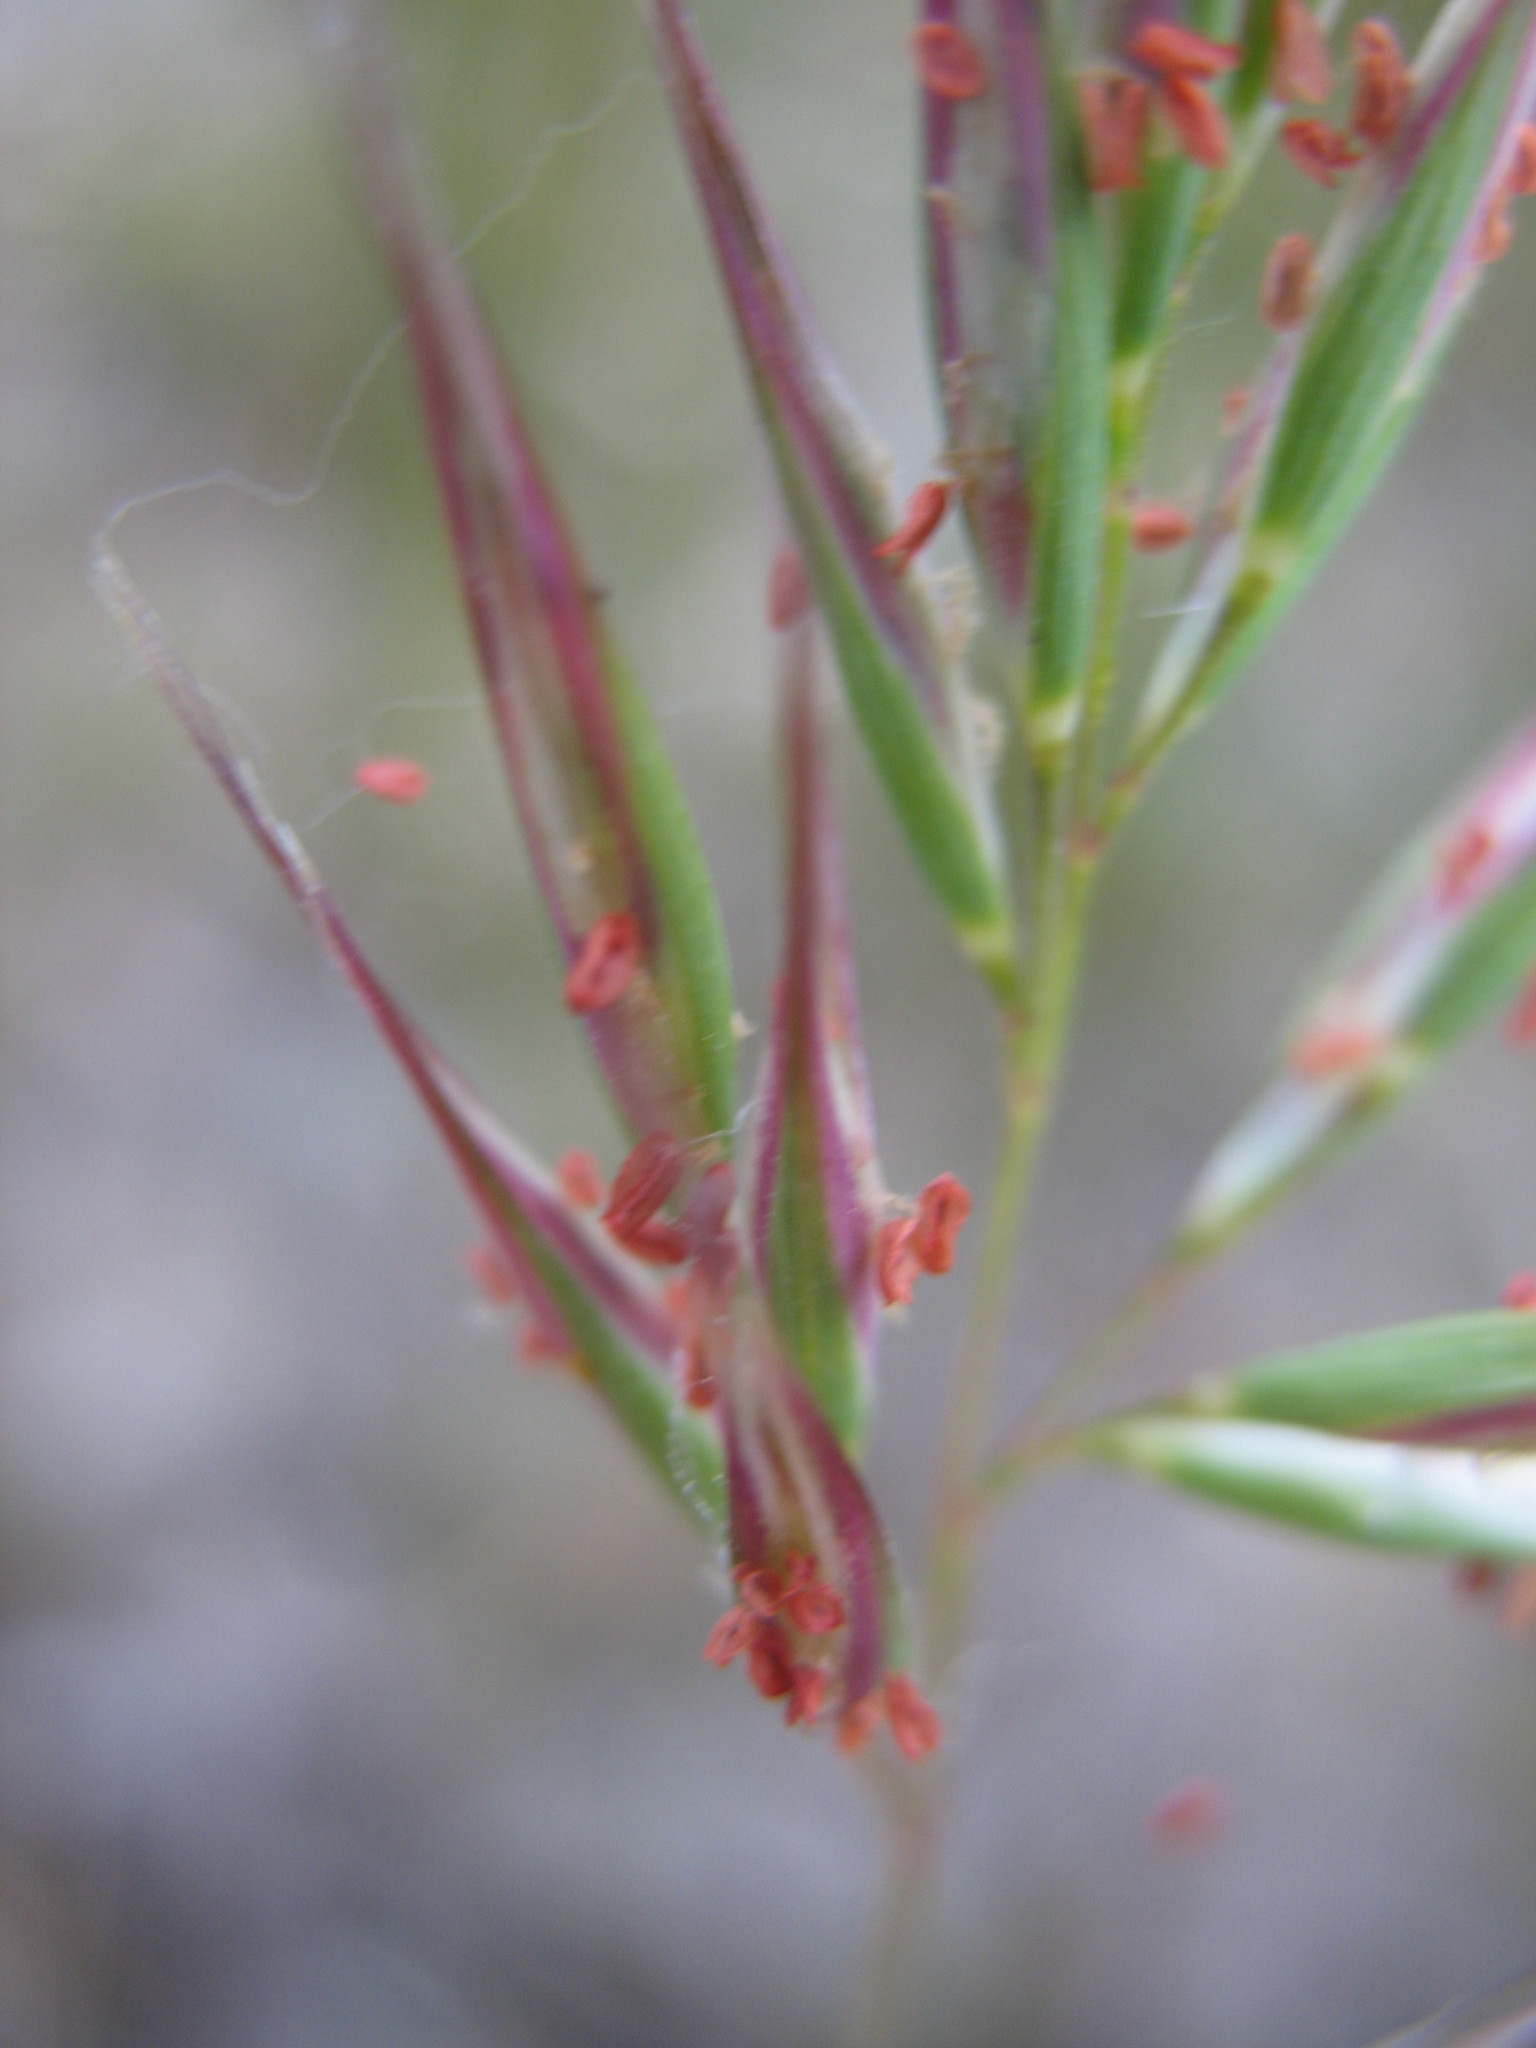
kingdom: Plantae
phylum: Tracheophyta
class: Liliopsida
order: Poales
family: Poaceae
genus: Rytidosperma
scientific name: Rytidosperma caespitosum
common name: Tufted wallaby grass
